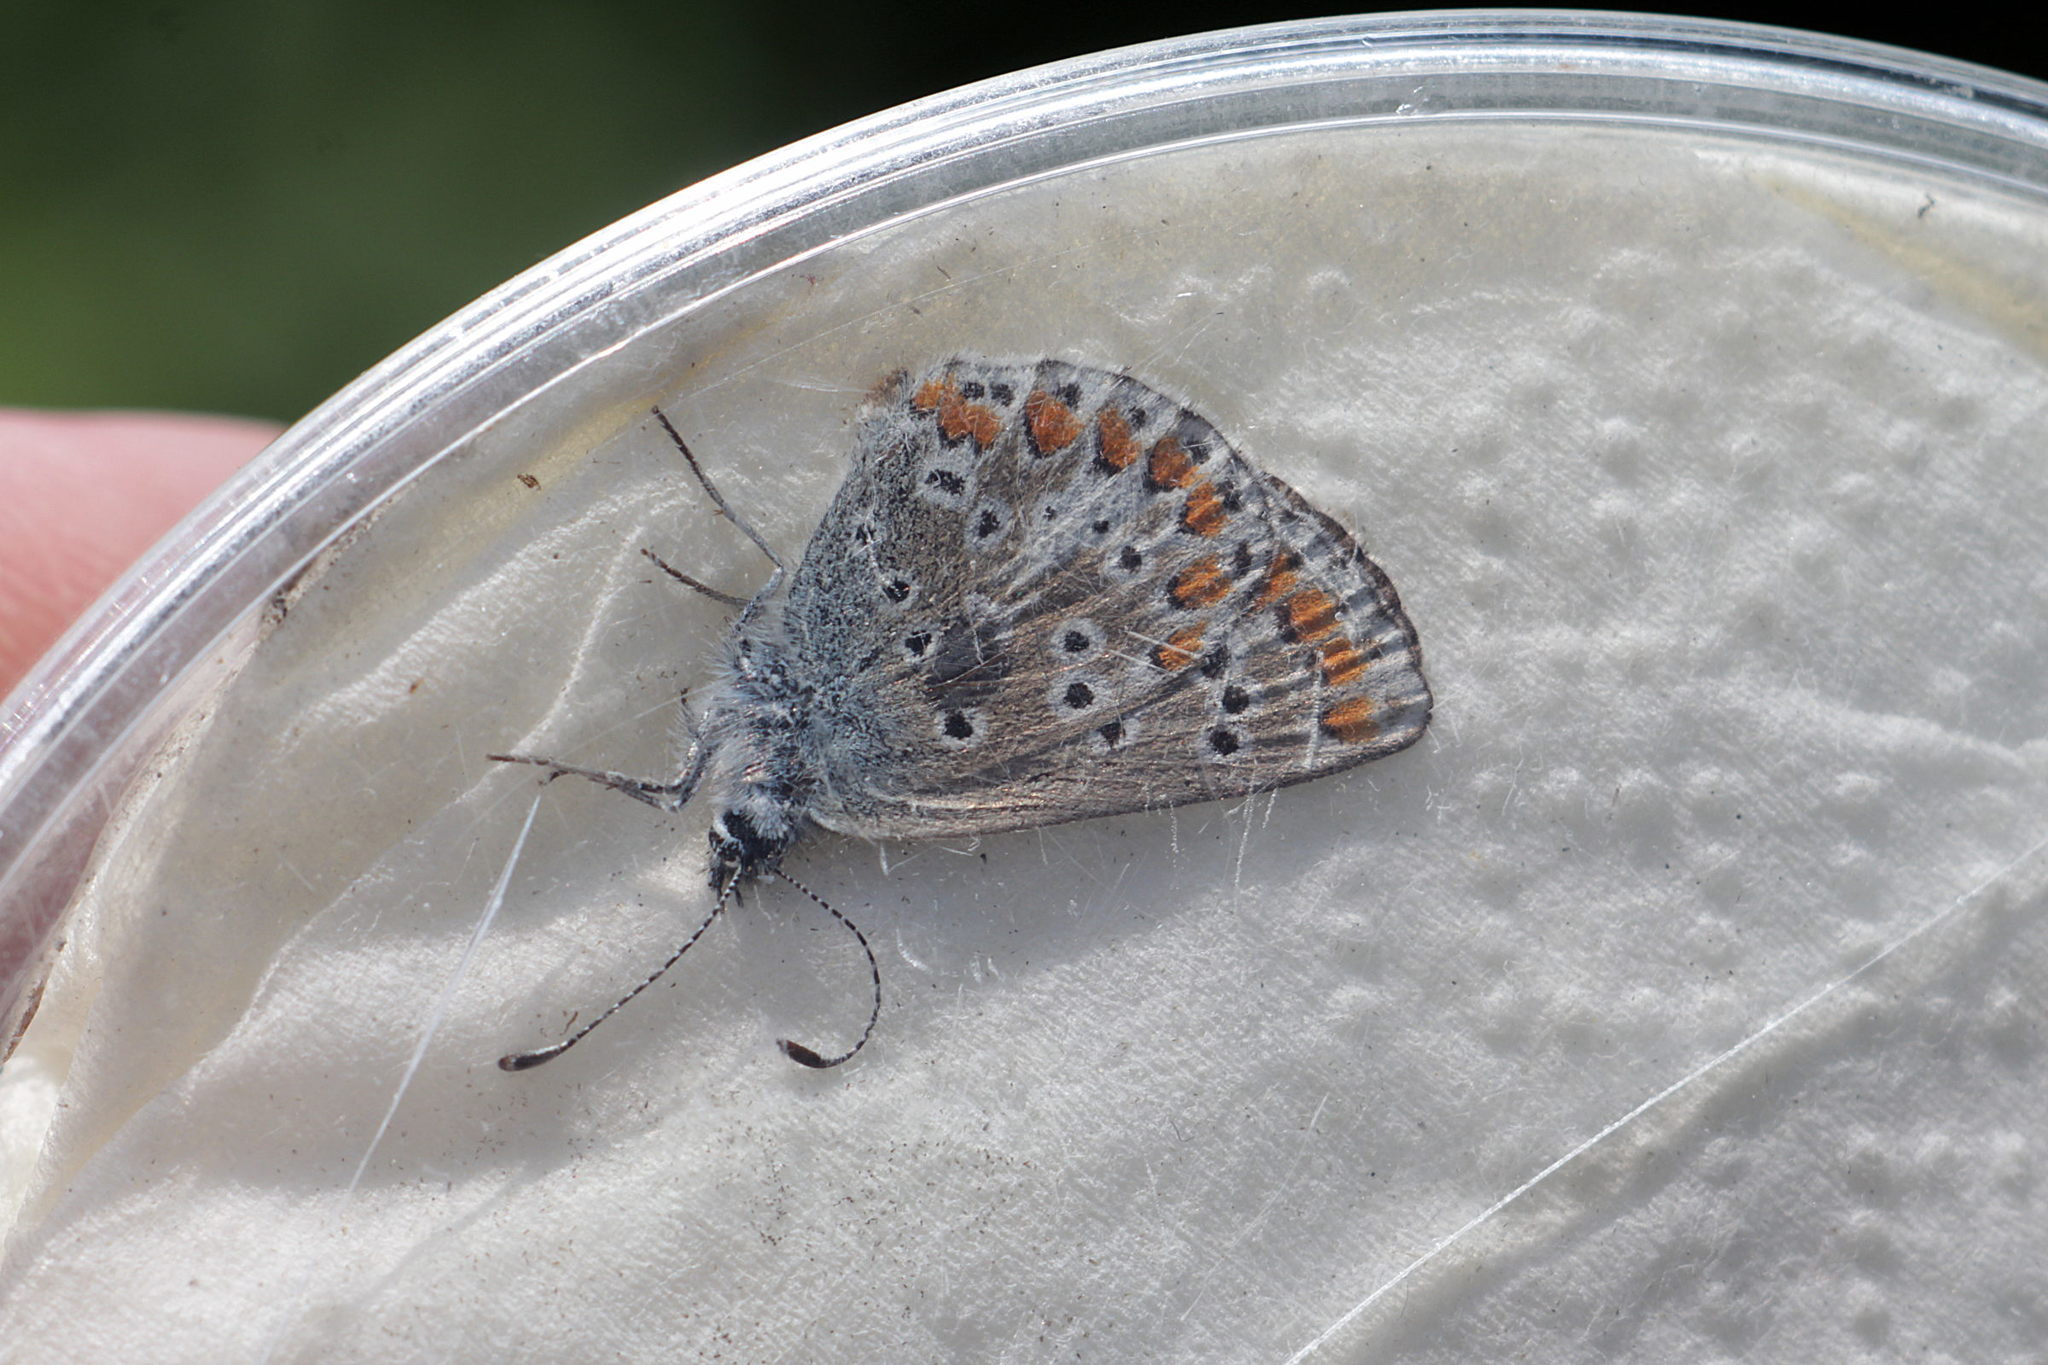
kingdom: Animalia
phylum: Arthropoda
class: Insecta
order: Lepidoptera
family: Lycaenidae
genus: Aricia
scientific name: Aricia agestis
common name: Brown argus
